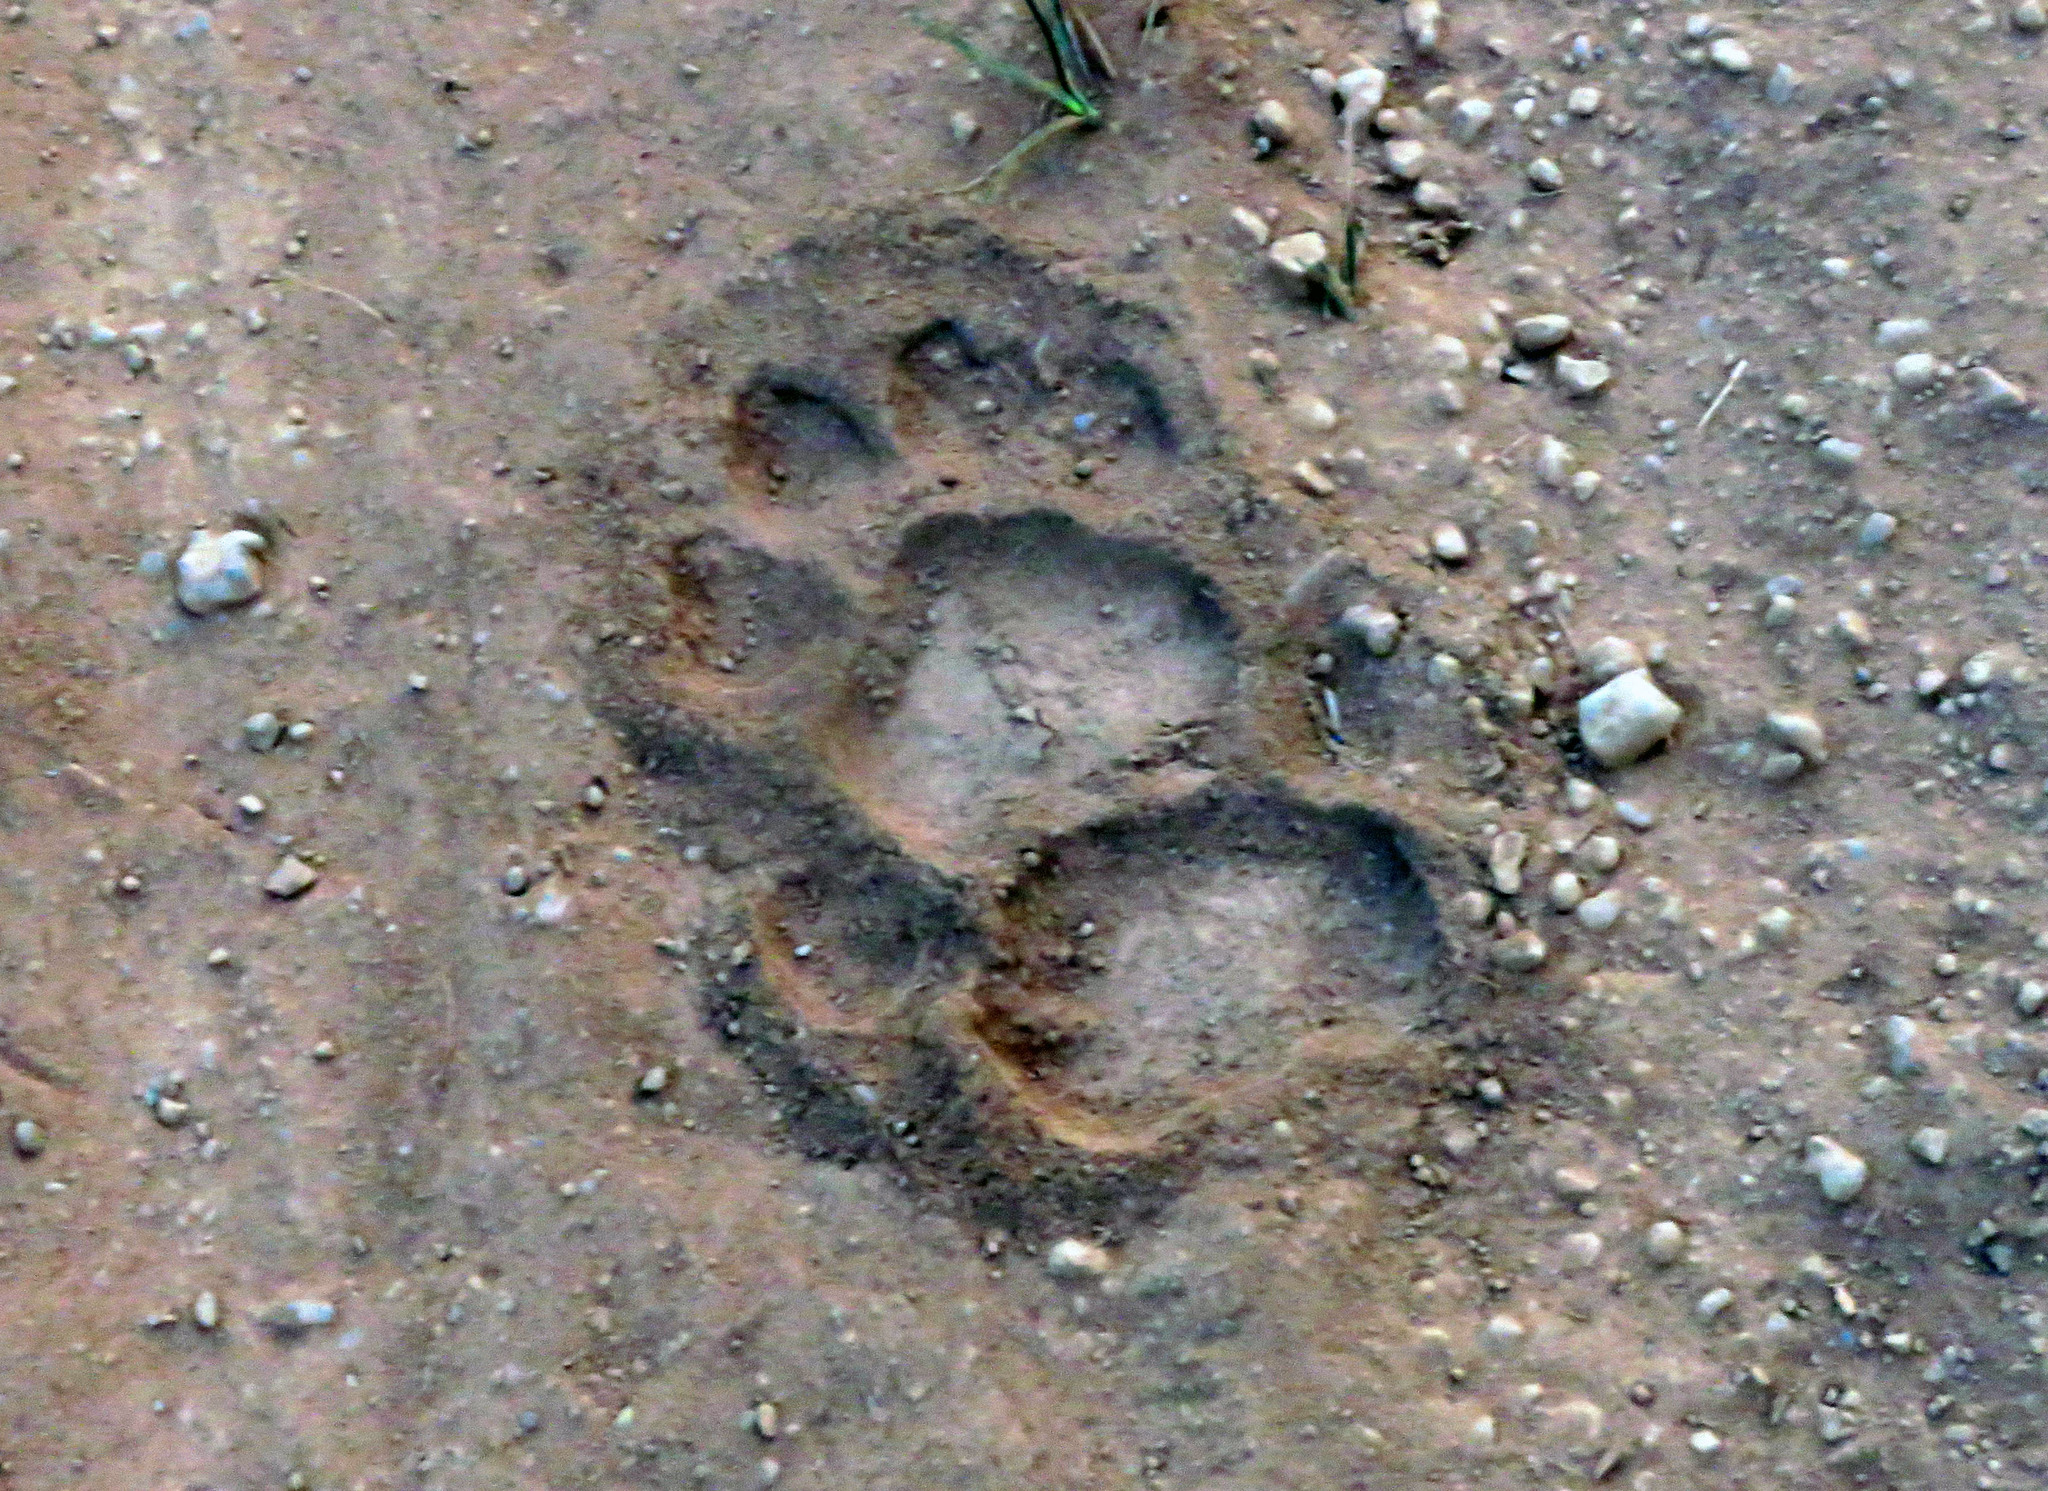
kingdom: Animalia
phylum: Chordata
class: Mammalia
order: Carnivora
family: Felidae
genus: Panthera
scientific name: Panthera onca
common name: Jaguar
